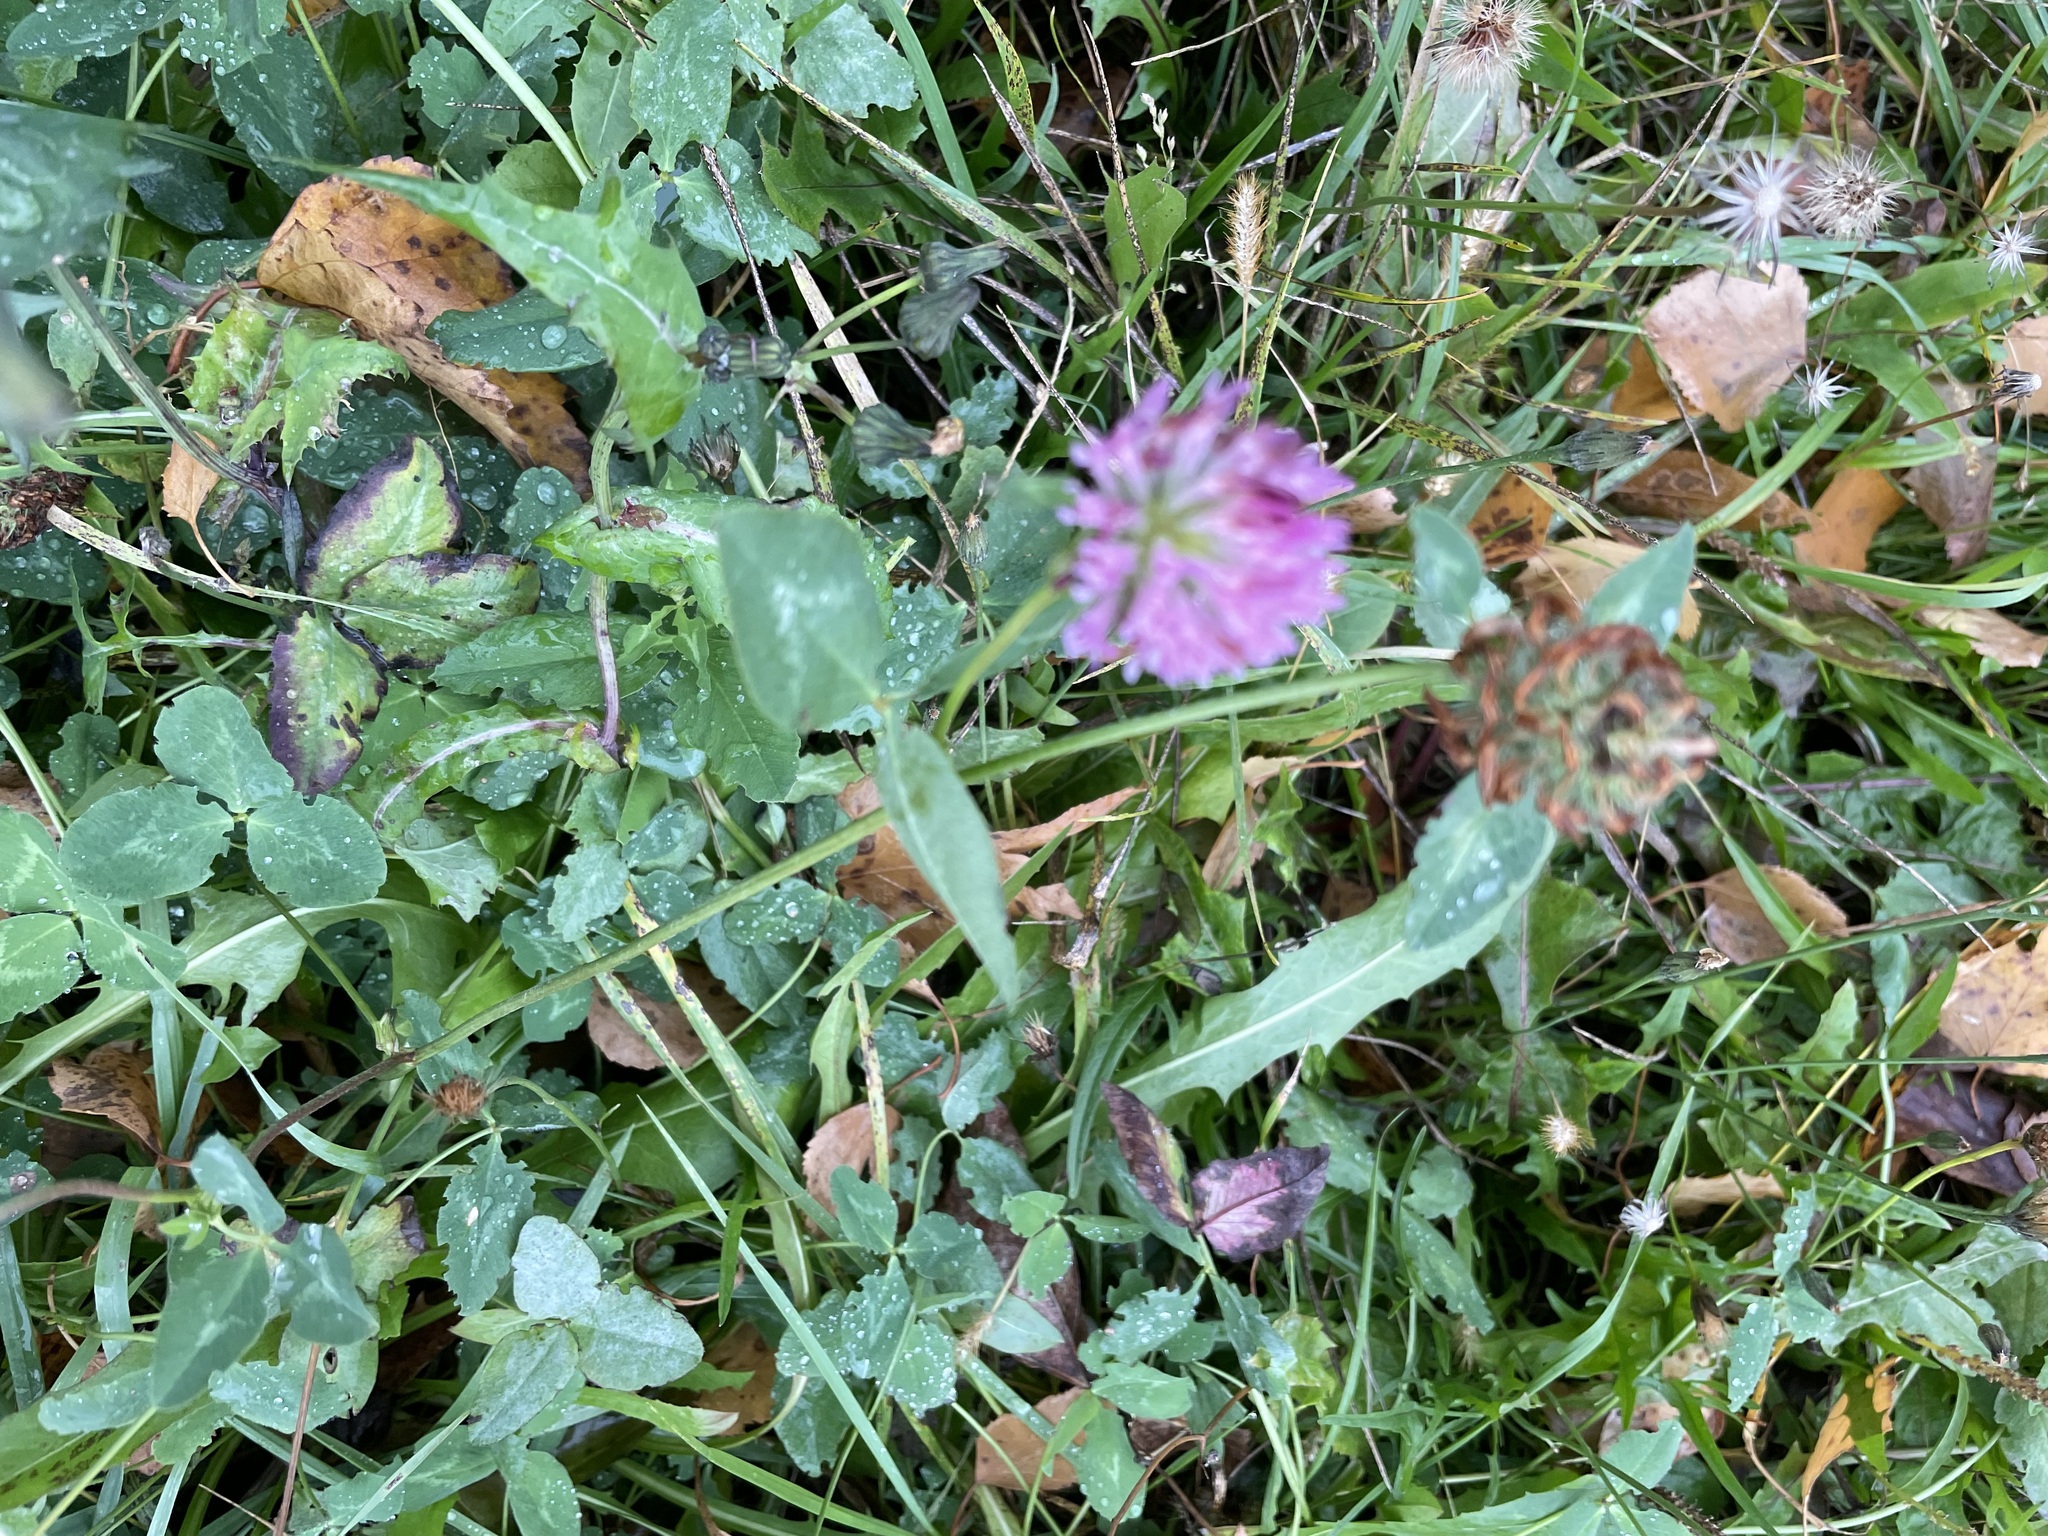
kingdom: Plantae
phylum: Tracheophyta
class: Magnoliopsida
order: Fabales
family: Fabaceae
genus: Trifolium
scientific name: Trifolium pratense
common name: Red clover
